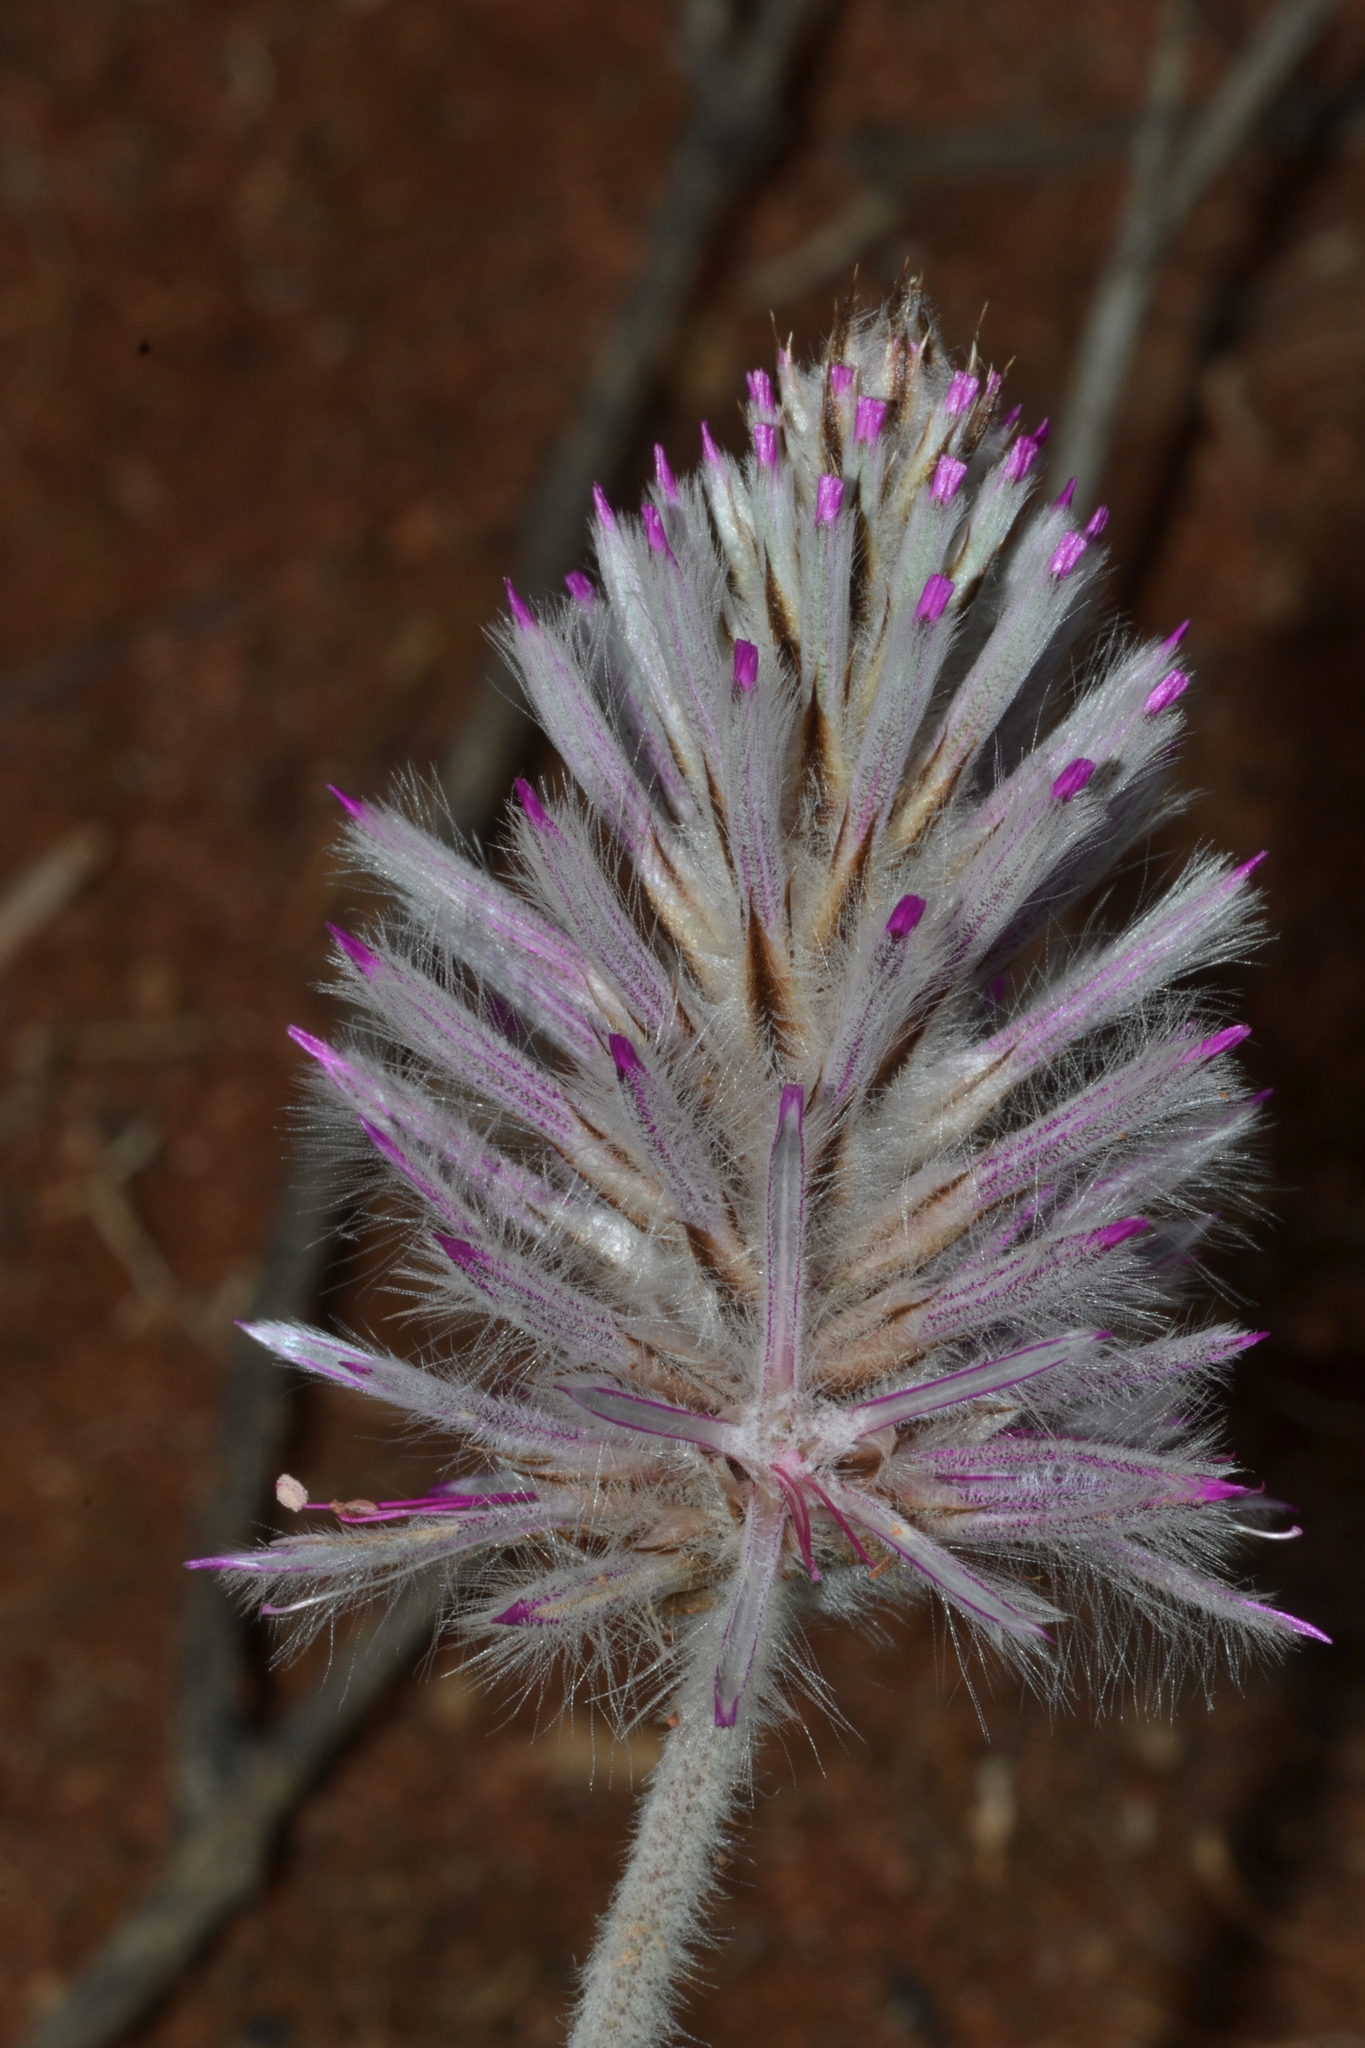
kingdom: Plantae
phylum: Tracheophyta
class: Magnoliopsida
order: Caryophyllales
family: Amaranthaceae
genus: Ptilotus
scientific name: Ptilotus exaltatus
